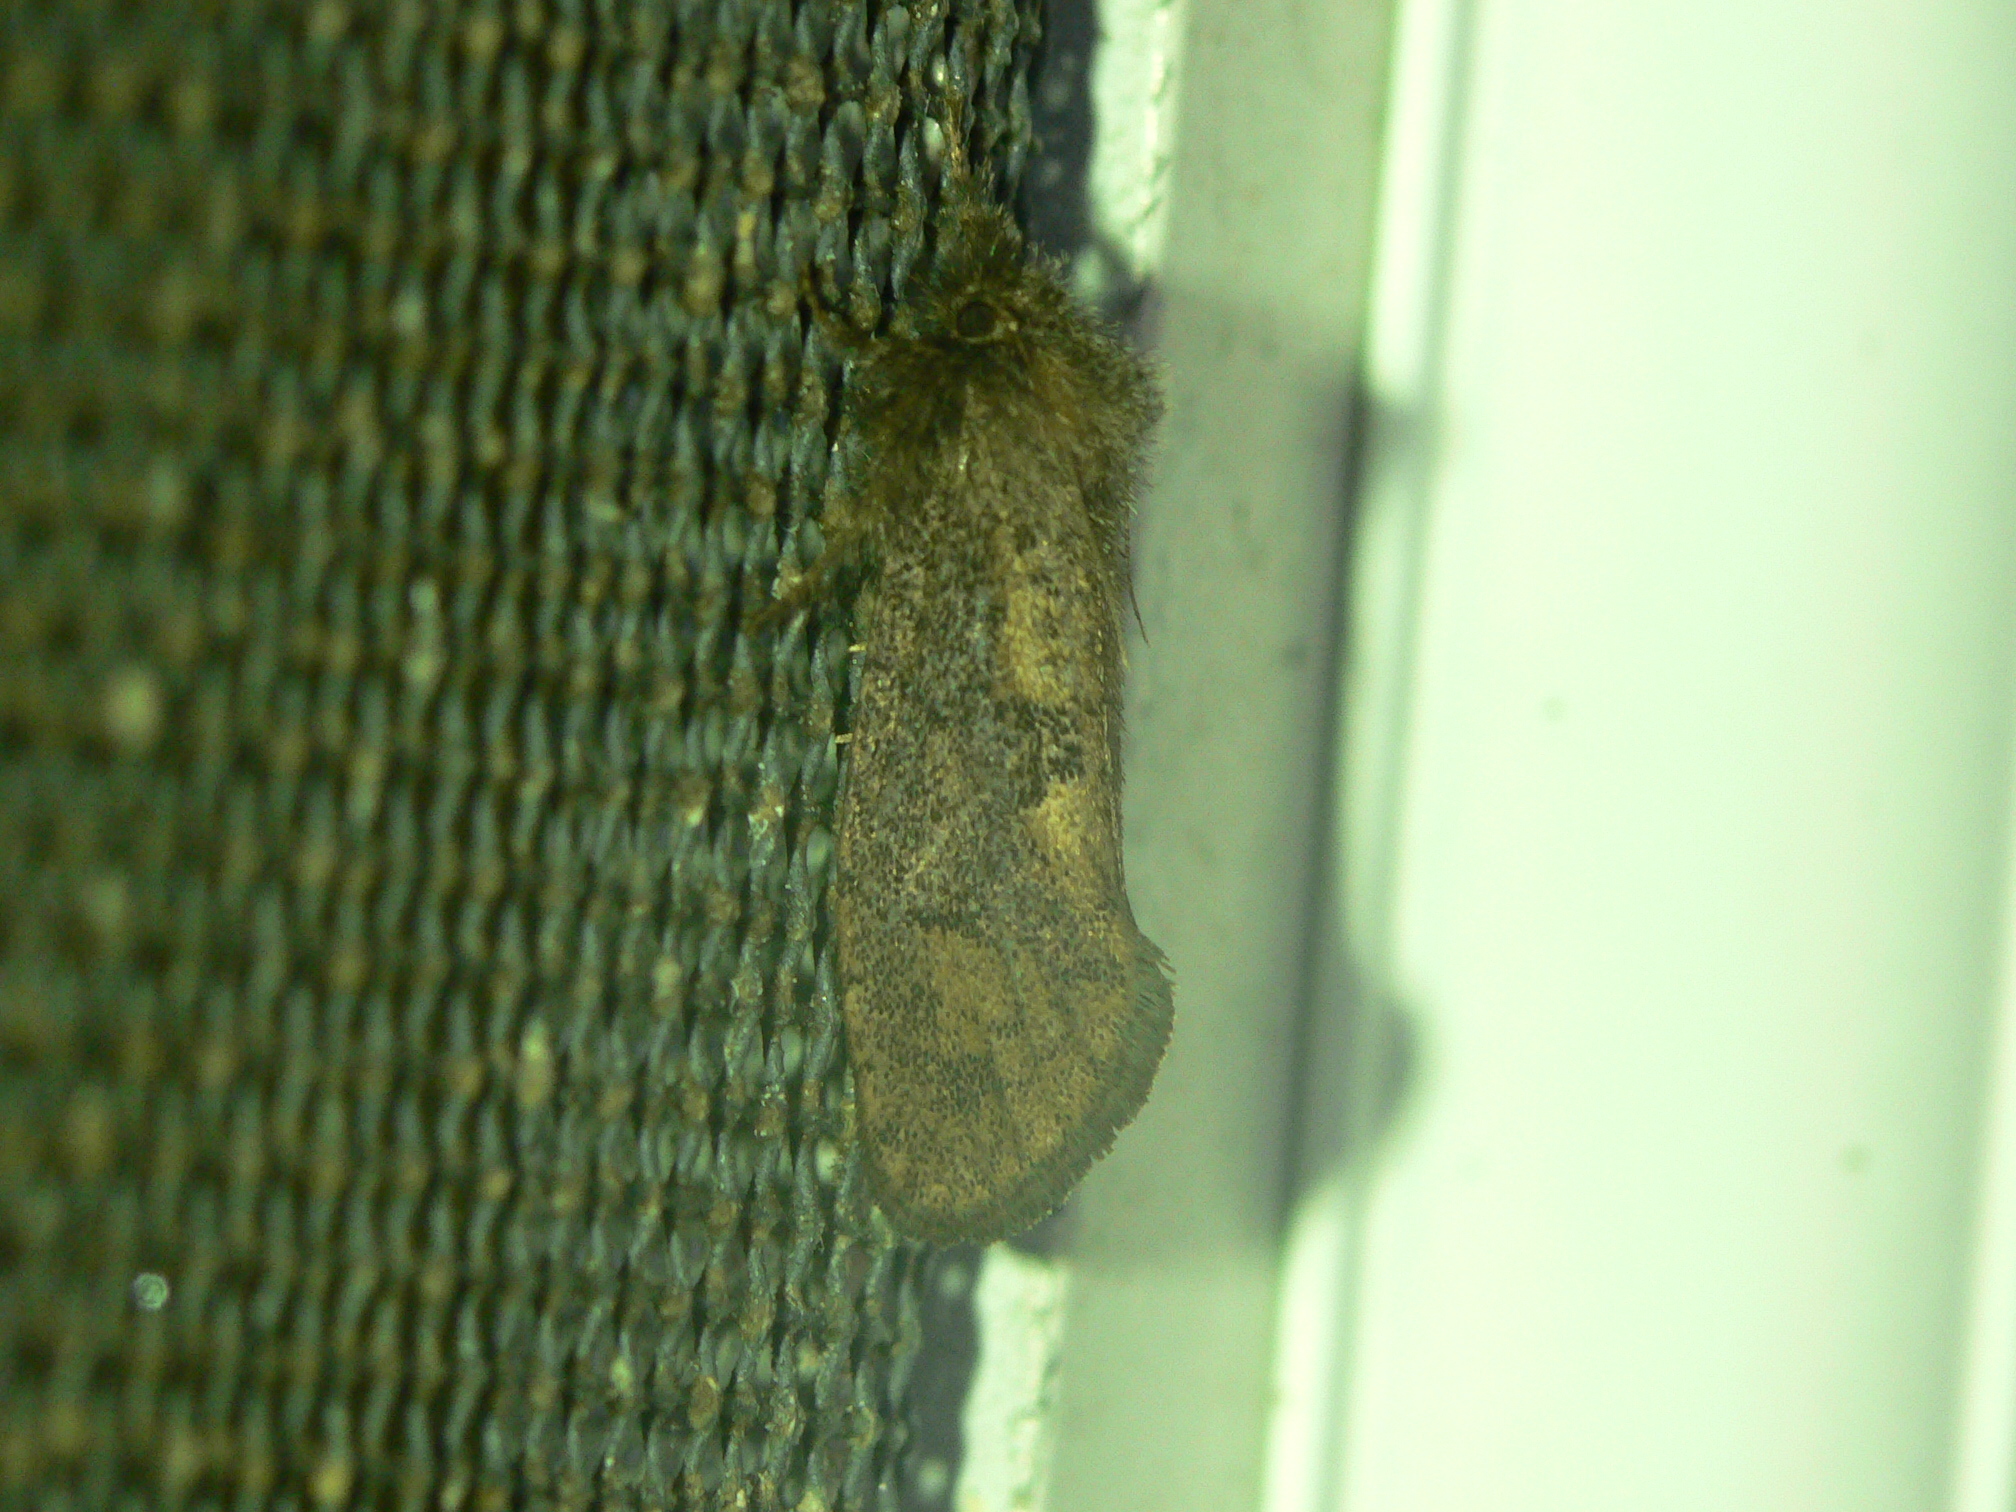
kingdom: Animalia
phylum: Arthropoda
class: Insecta
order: Lepidoptera
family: Tineidae
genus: Acrolophus
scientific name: Acrolophus mora
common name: Dark acrolophus
